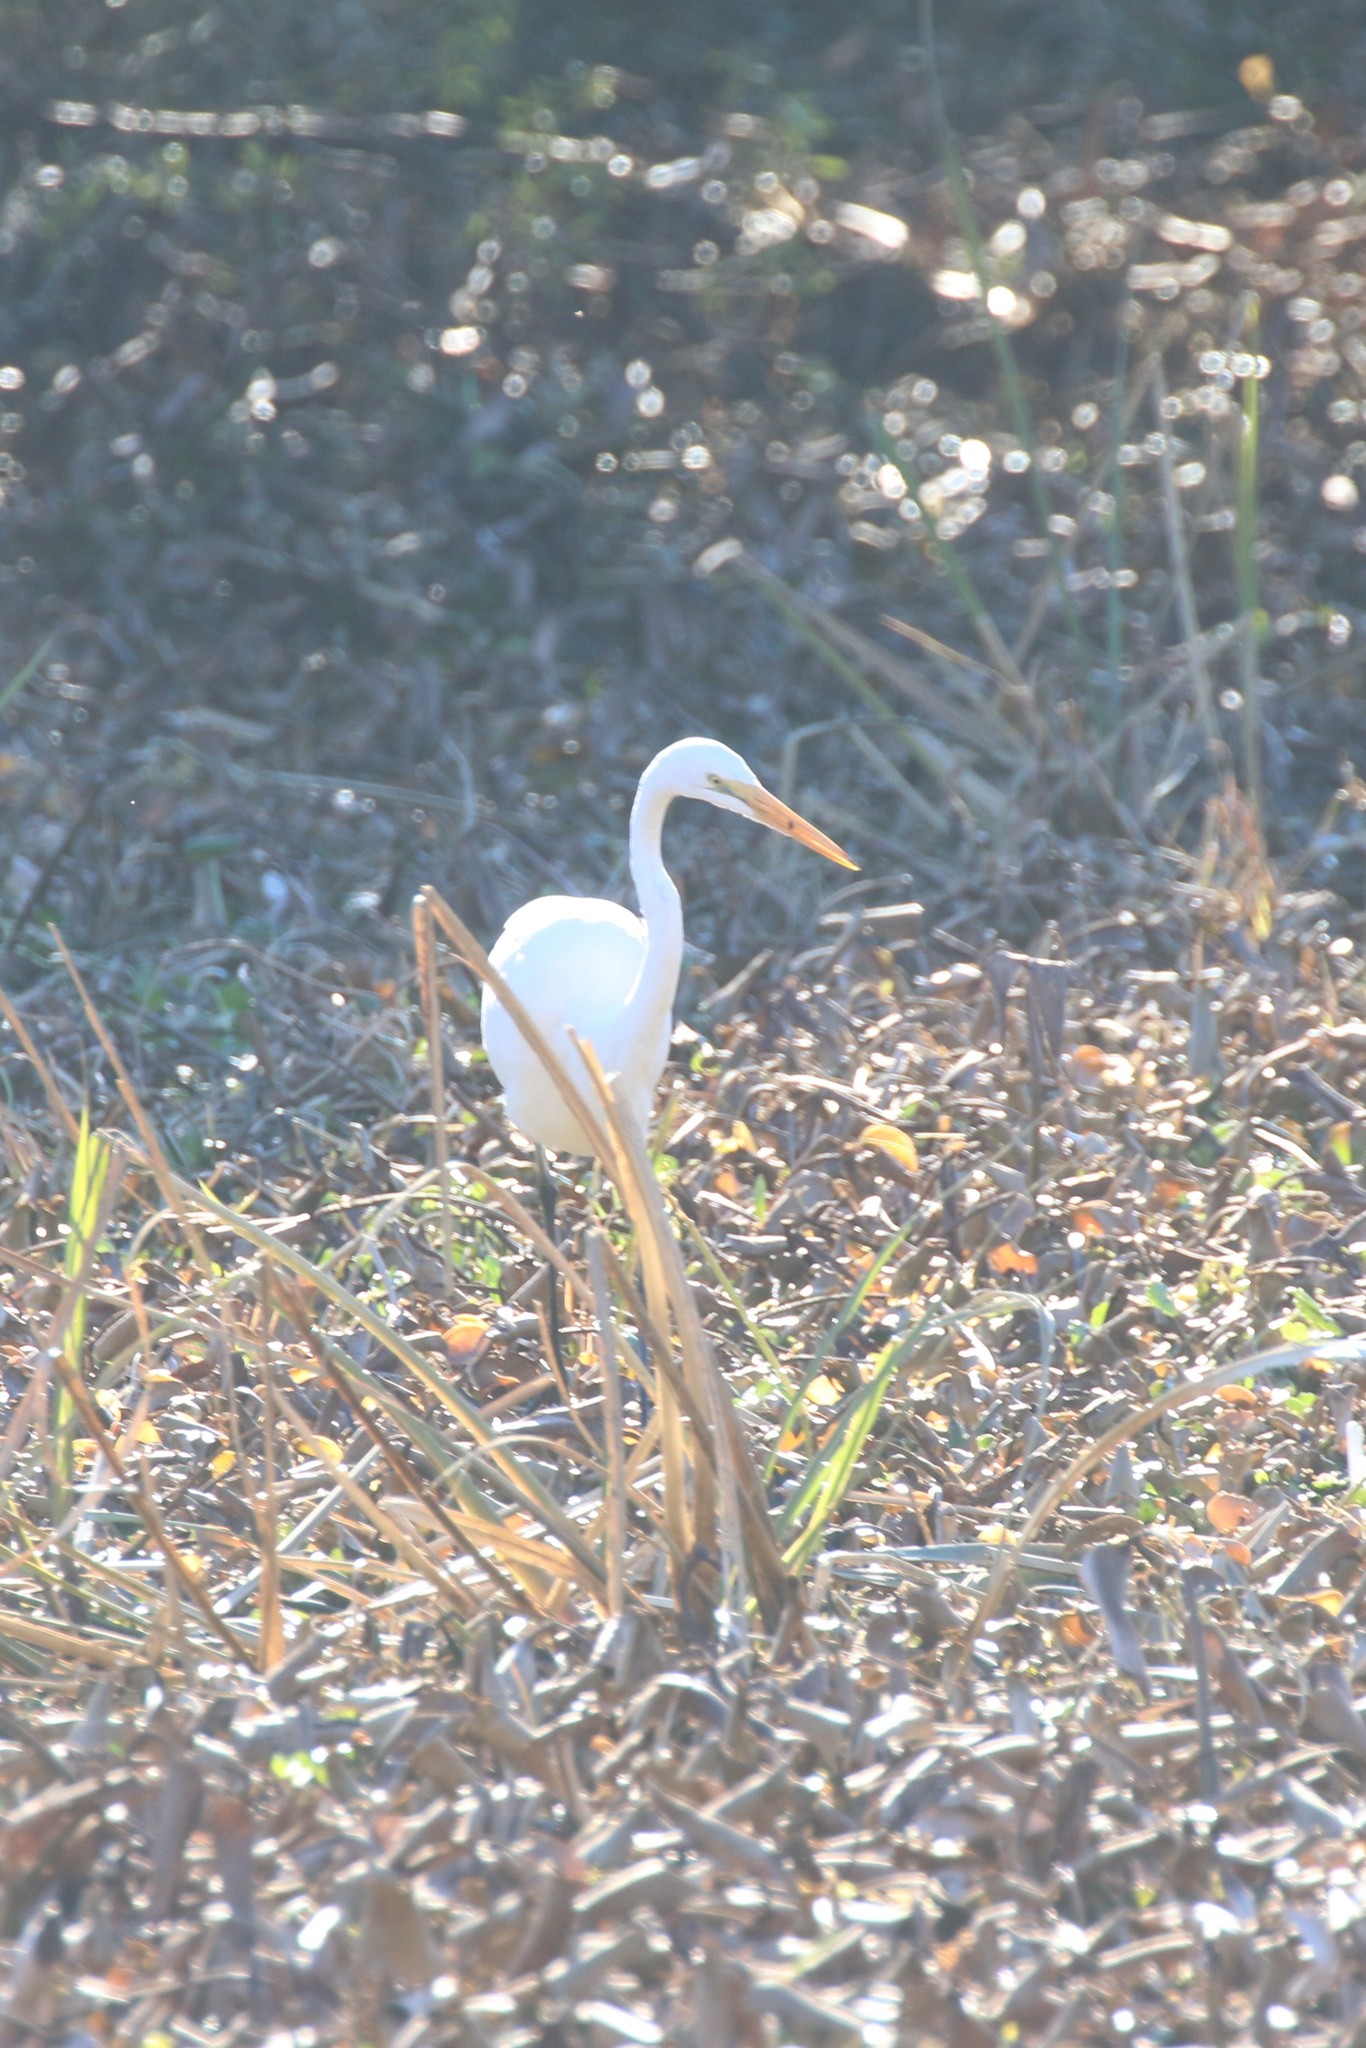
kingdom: Animalia
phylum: Chordata
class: Aves
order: Pelecaniformes
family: Ardeidae
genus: Ardea
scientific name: Ardea alba
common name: Great egret
